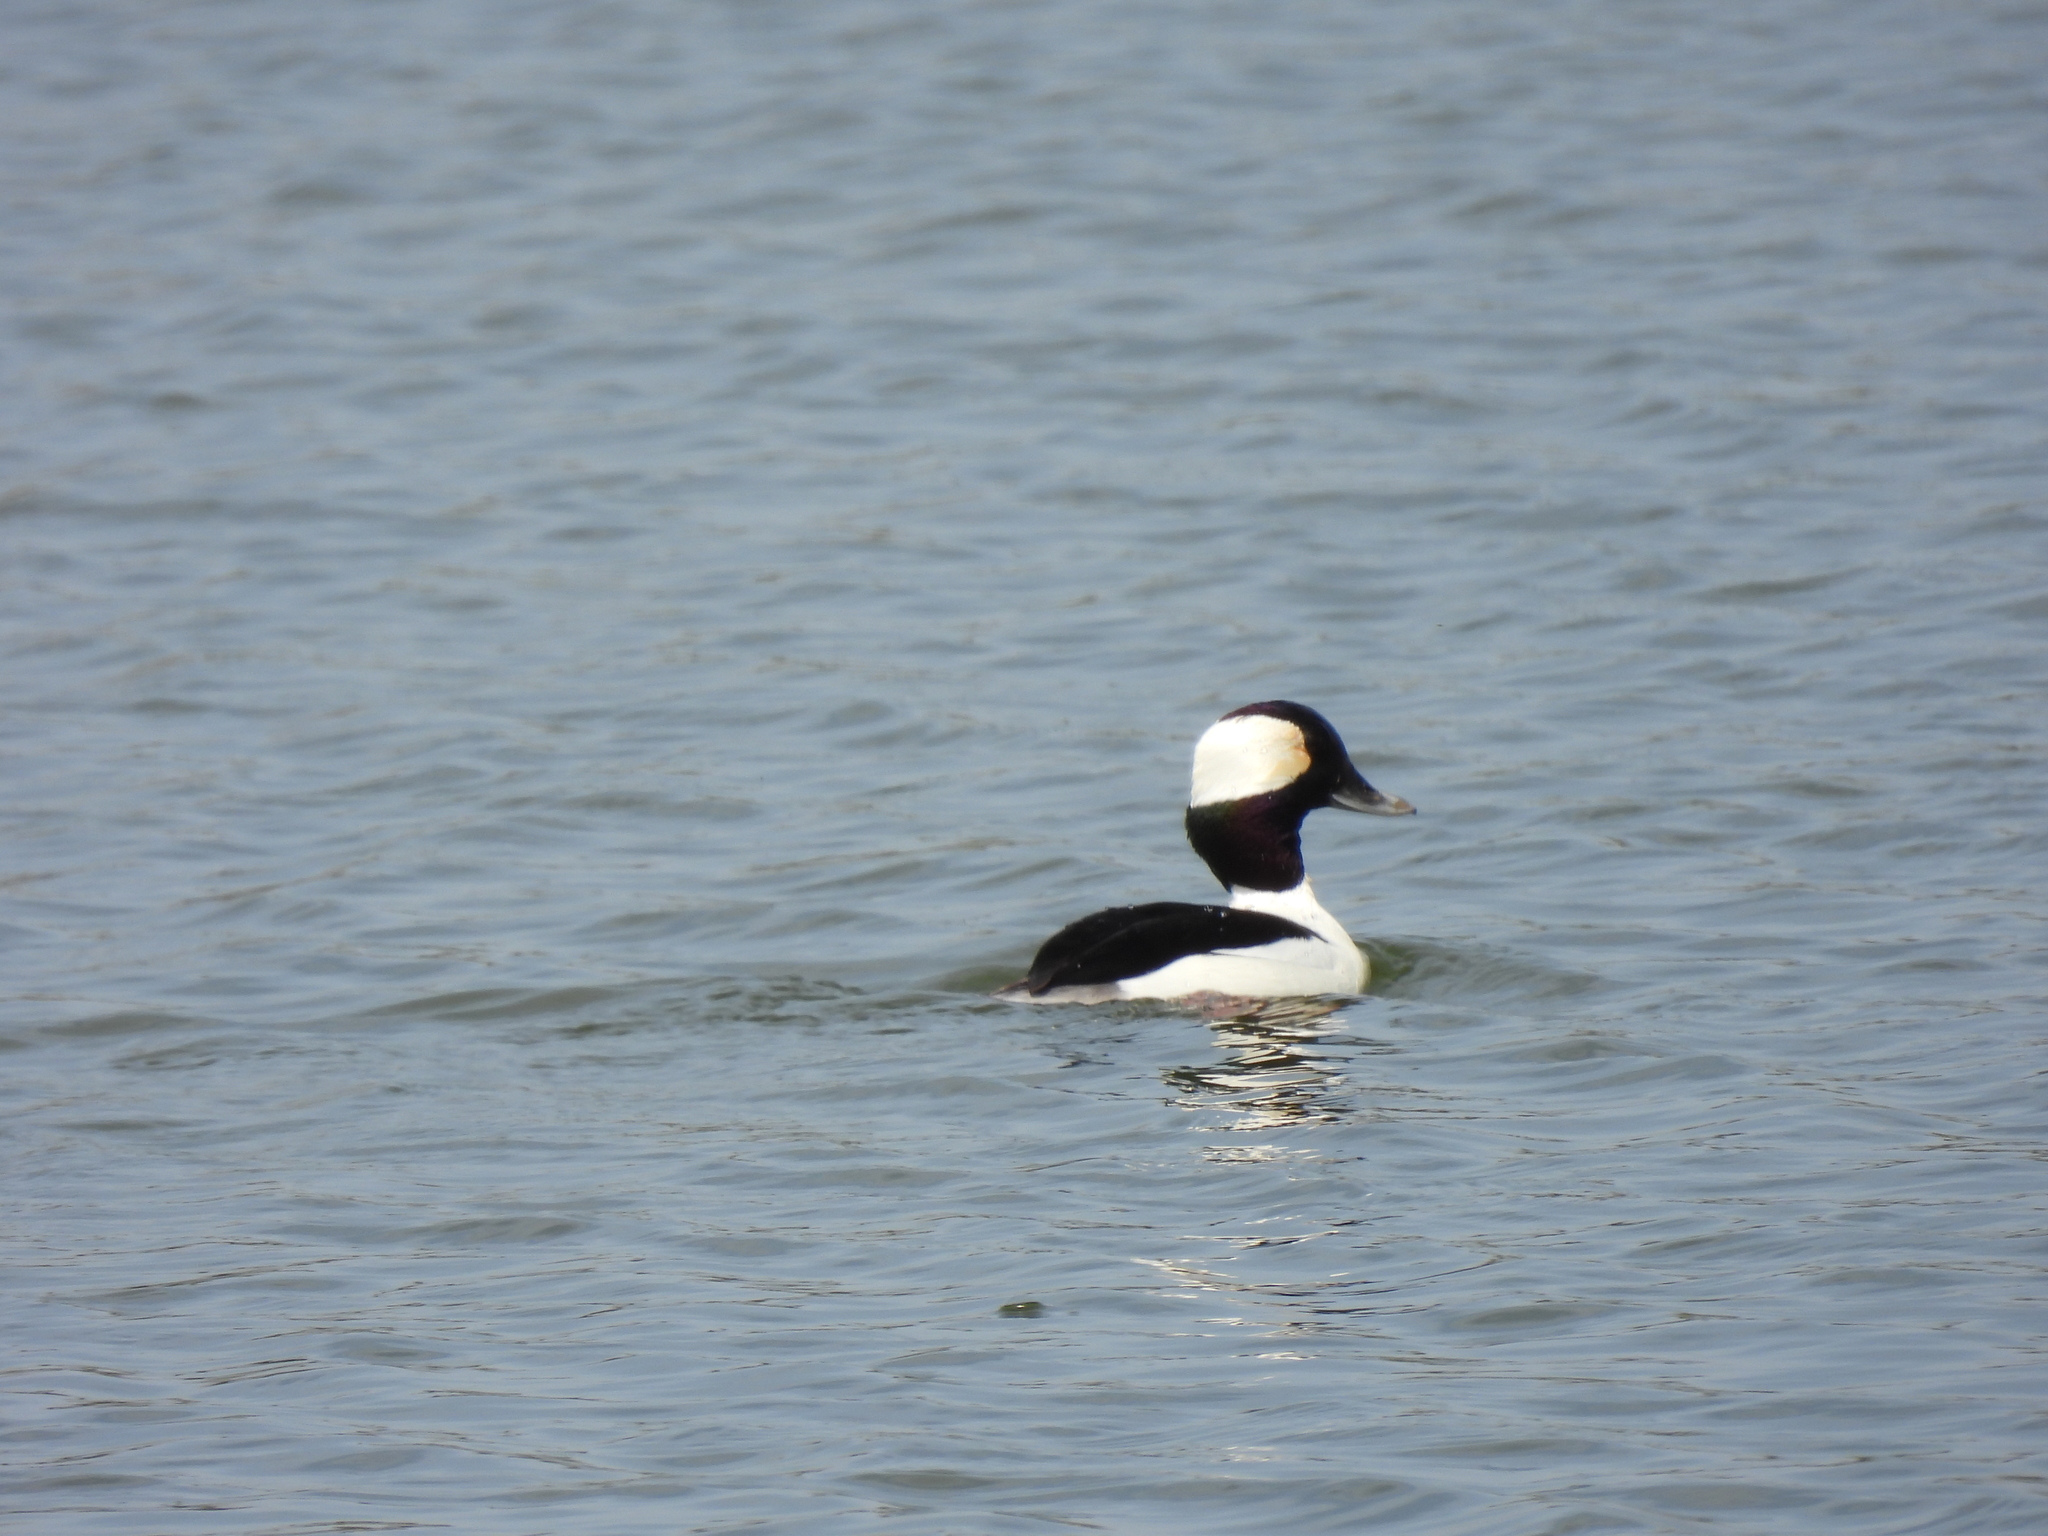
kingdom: Animalia
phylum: Chordata
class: Aves
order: Anseriformes
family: Anatidae
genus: Bucephala
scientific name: Bucephala albeola
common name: Bufflehead
